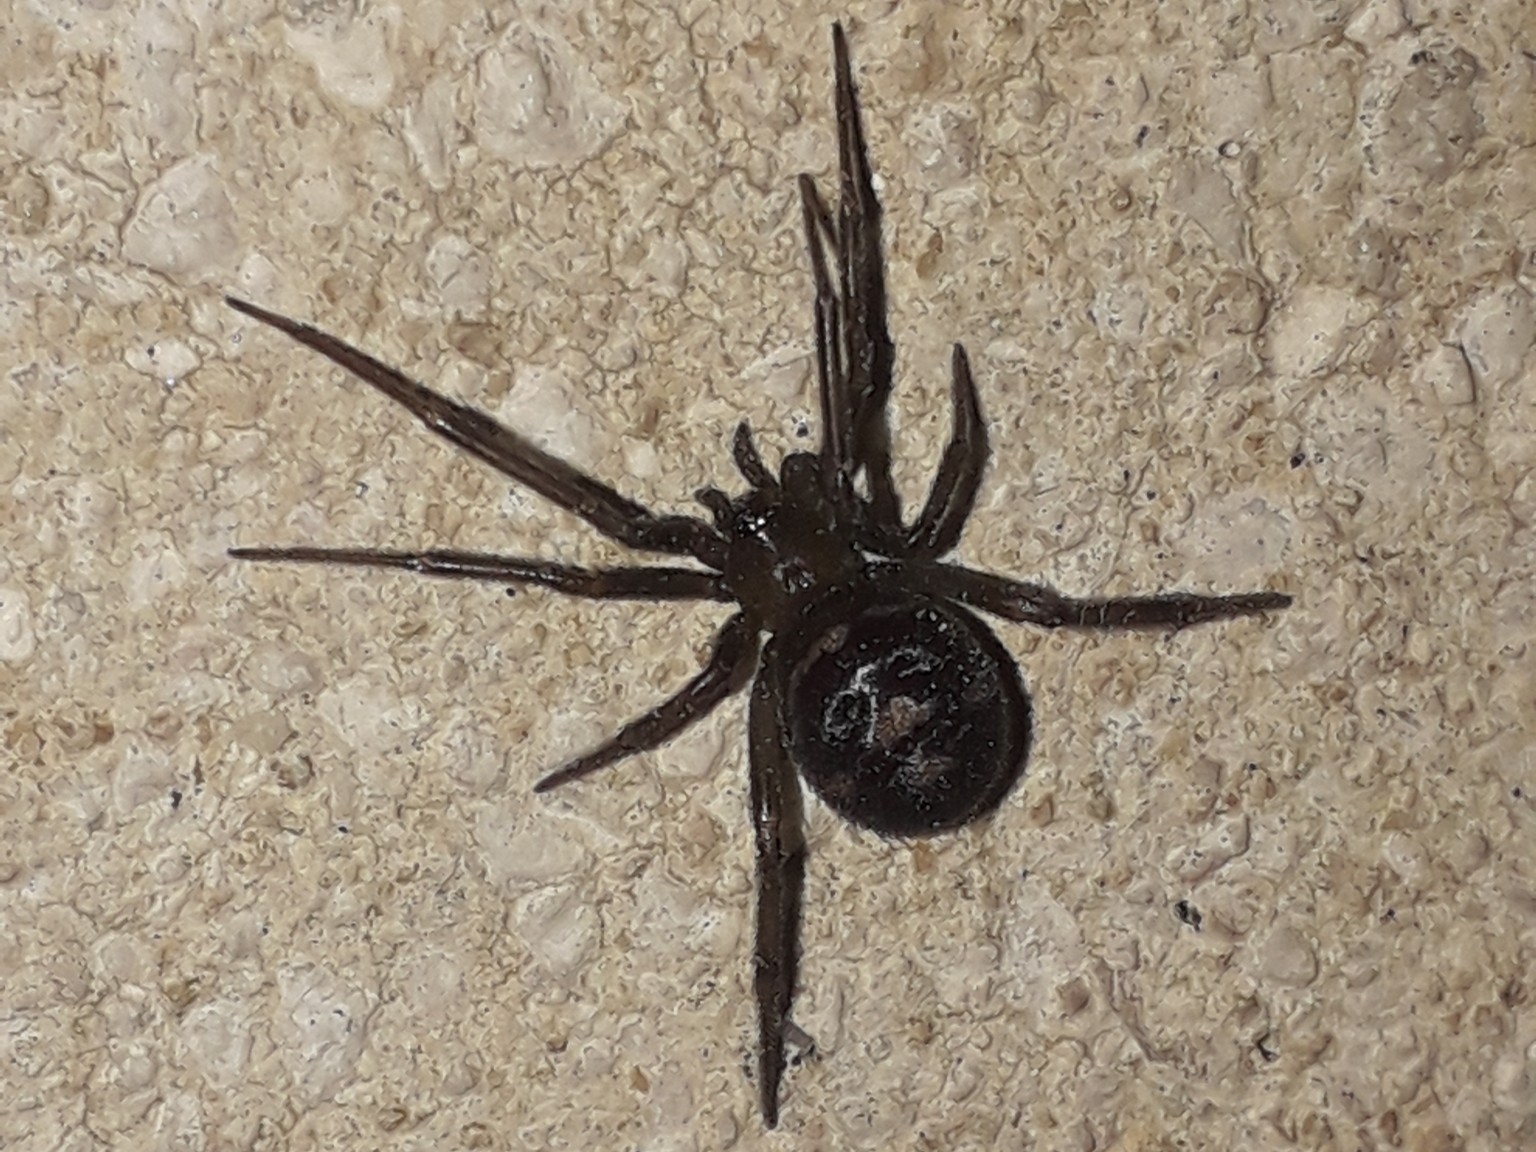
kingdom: Animalia
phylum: Arthropoda
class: Arachnida
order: Araneae
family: Theridiidae
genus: Steatoda
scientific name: Steatoda grossa
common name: False black widow
